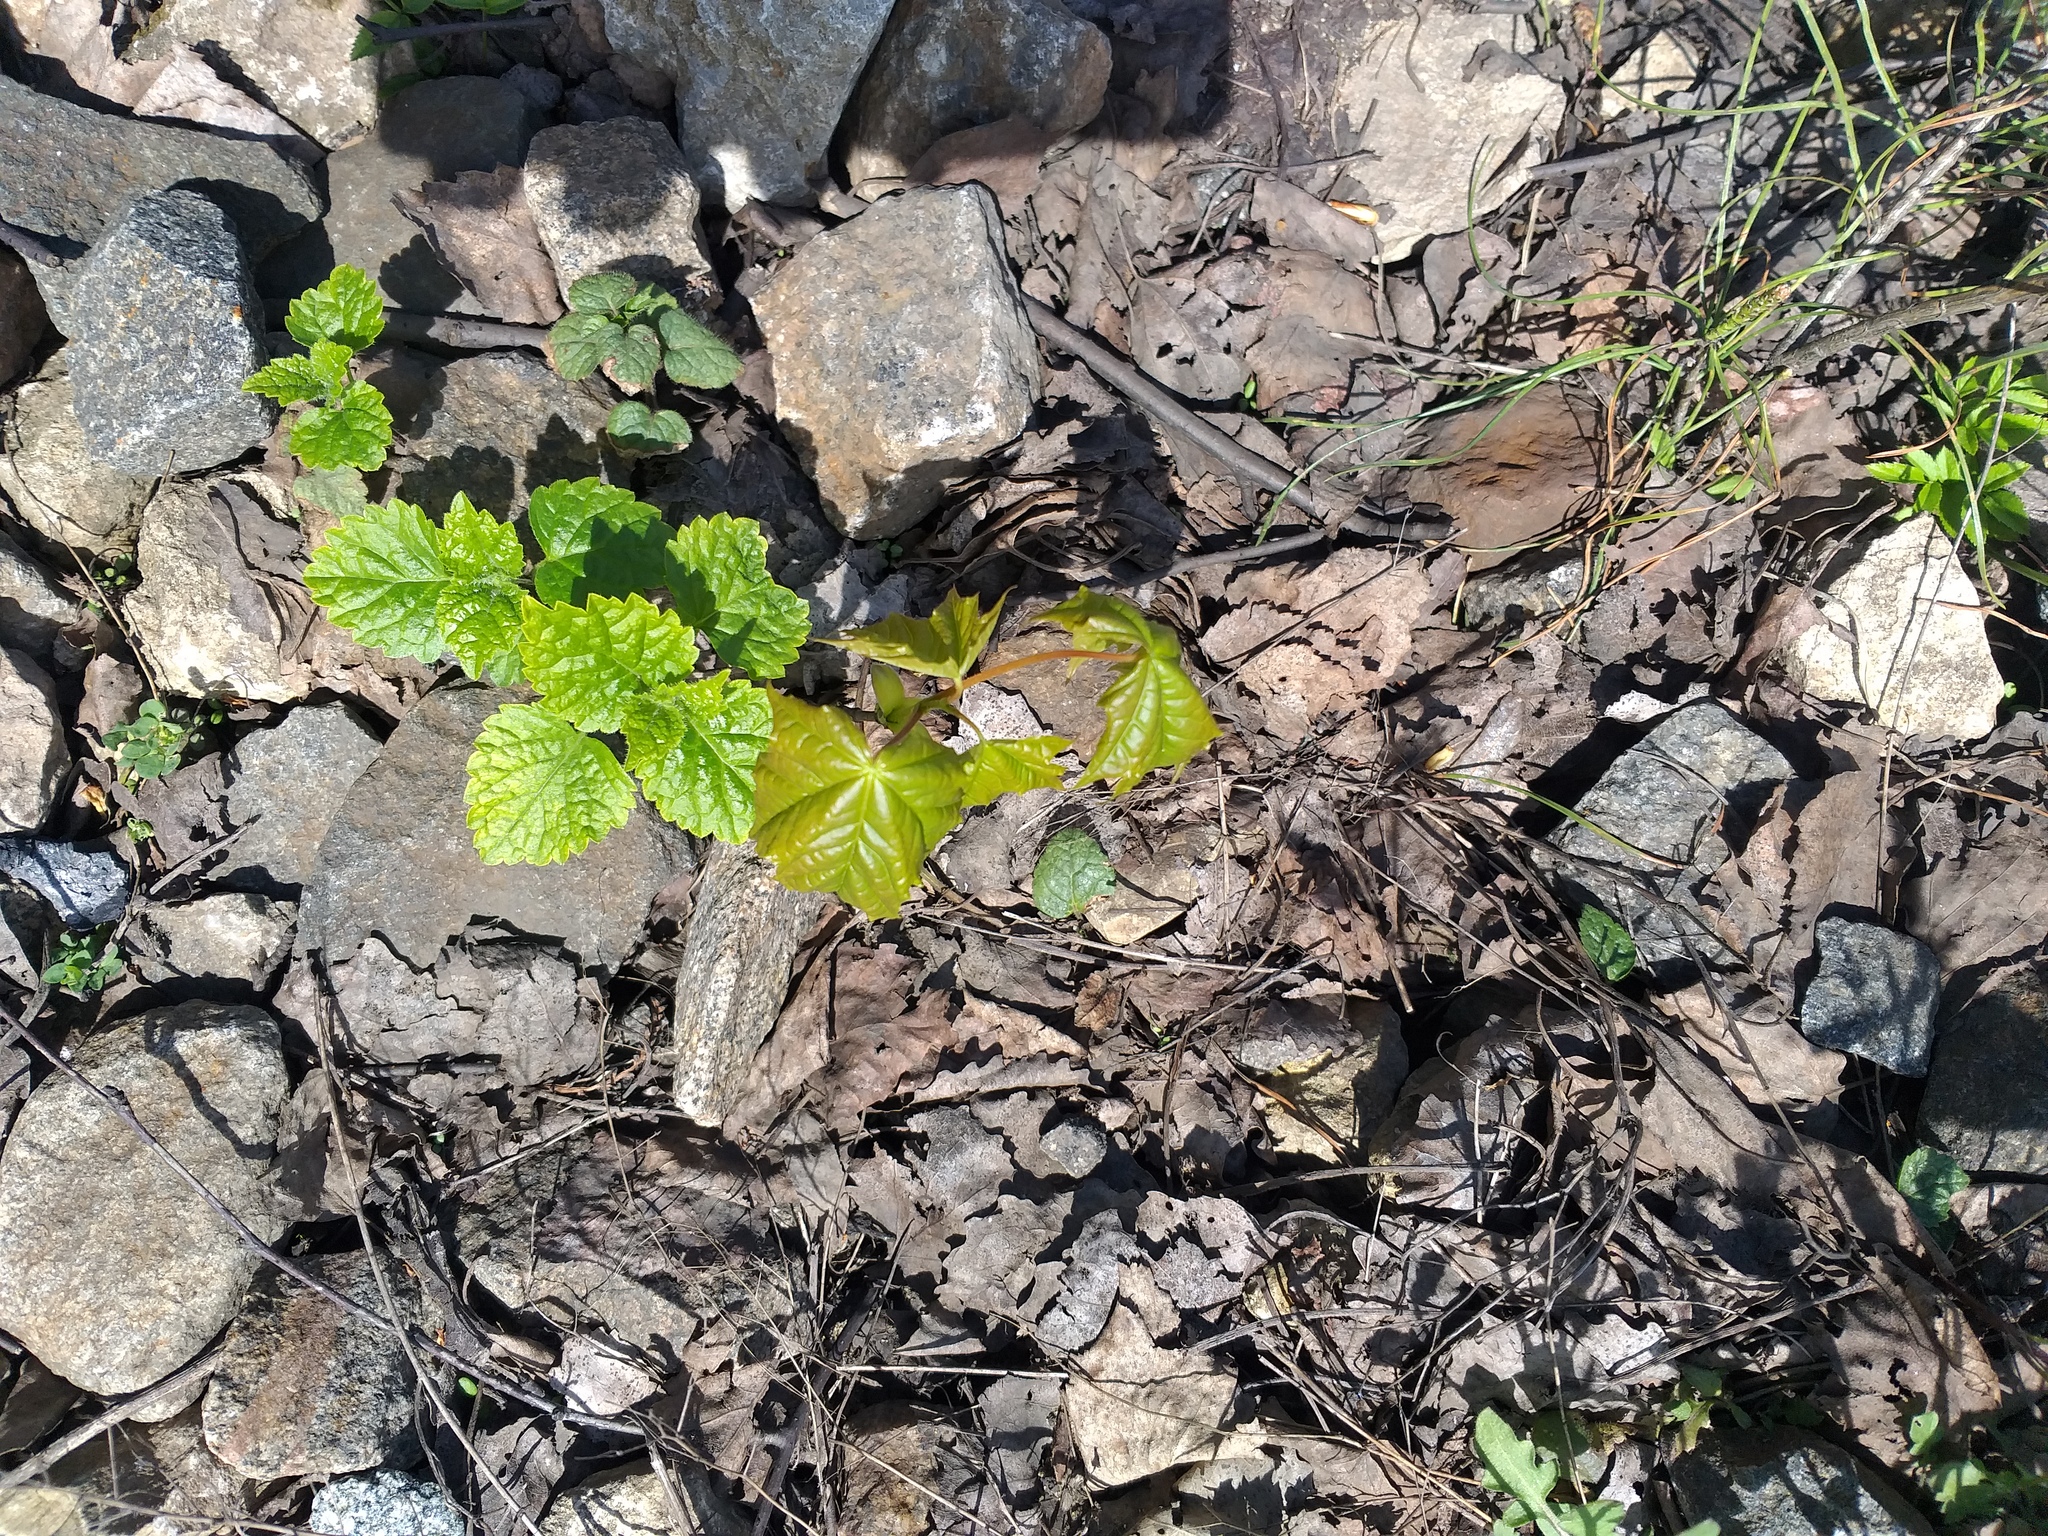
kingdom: Plantae
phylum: Tracheophyta
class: Magnoliopsida
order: Sapindales
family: Sapindaceae
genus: Acer
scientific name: Acer platanoides
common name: Norway maple
